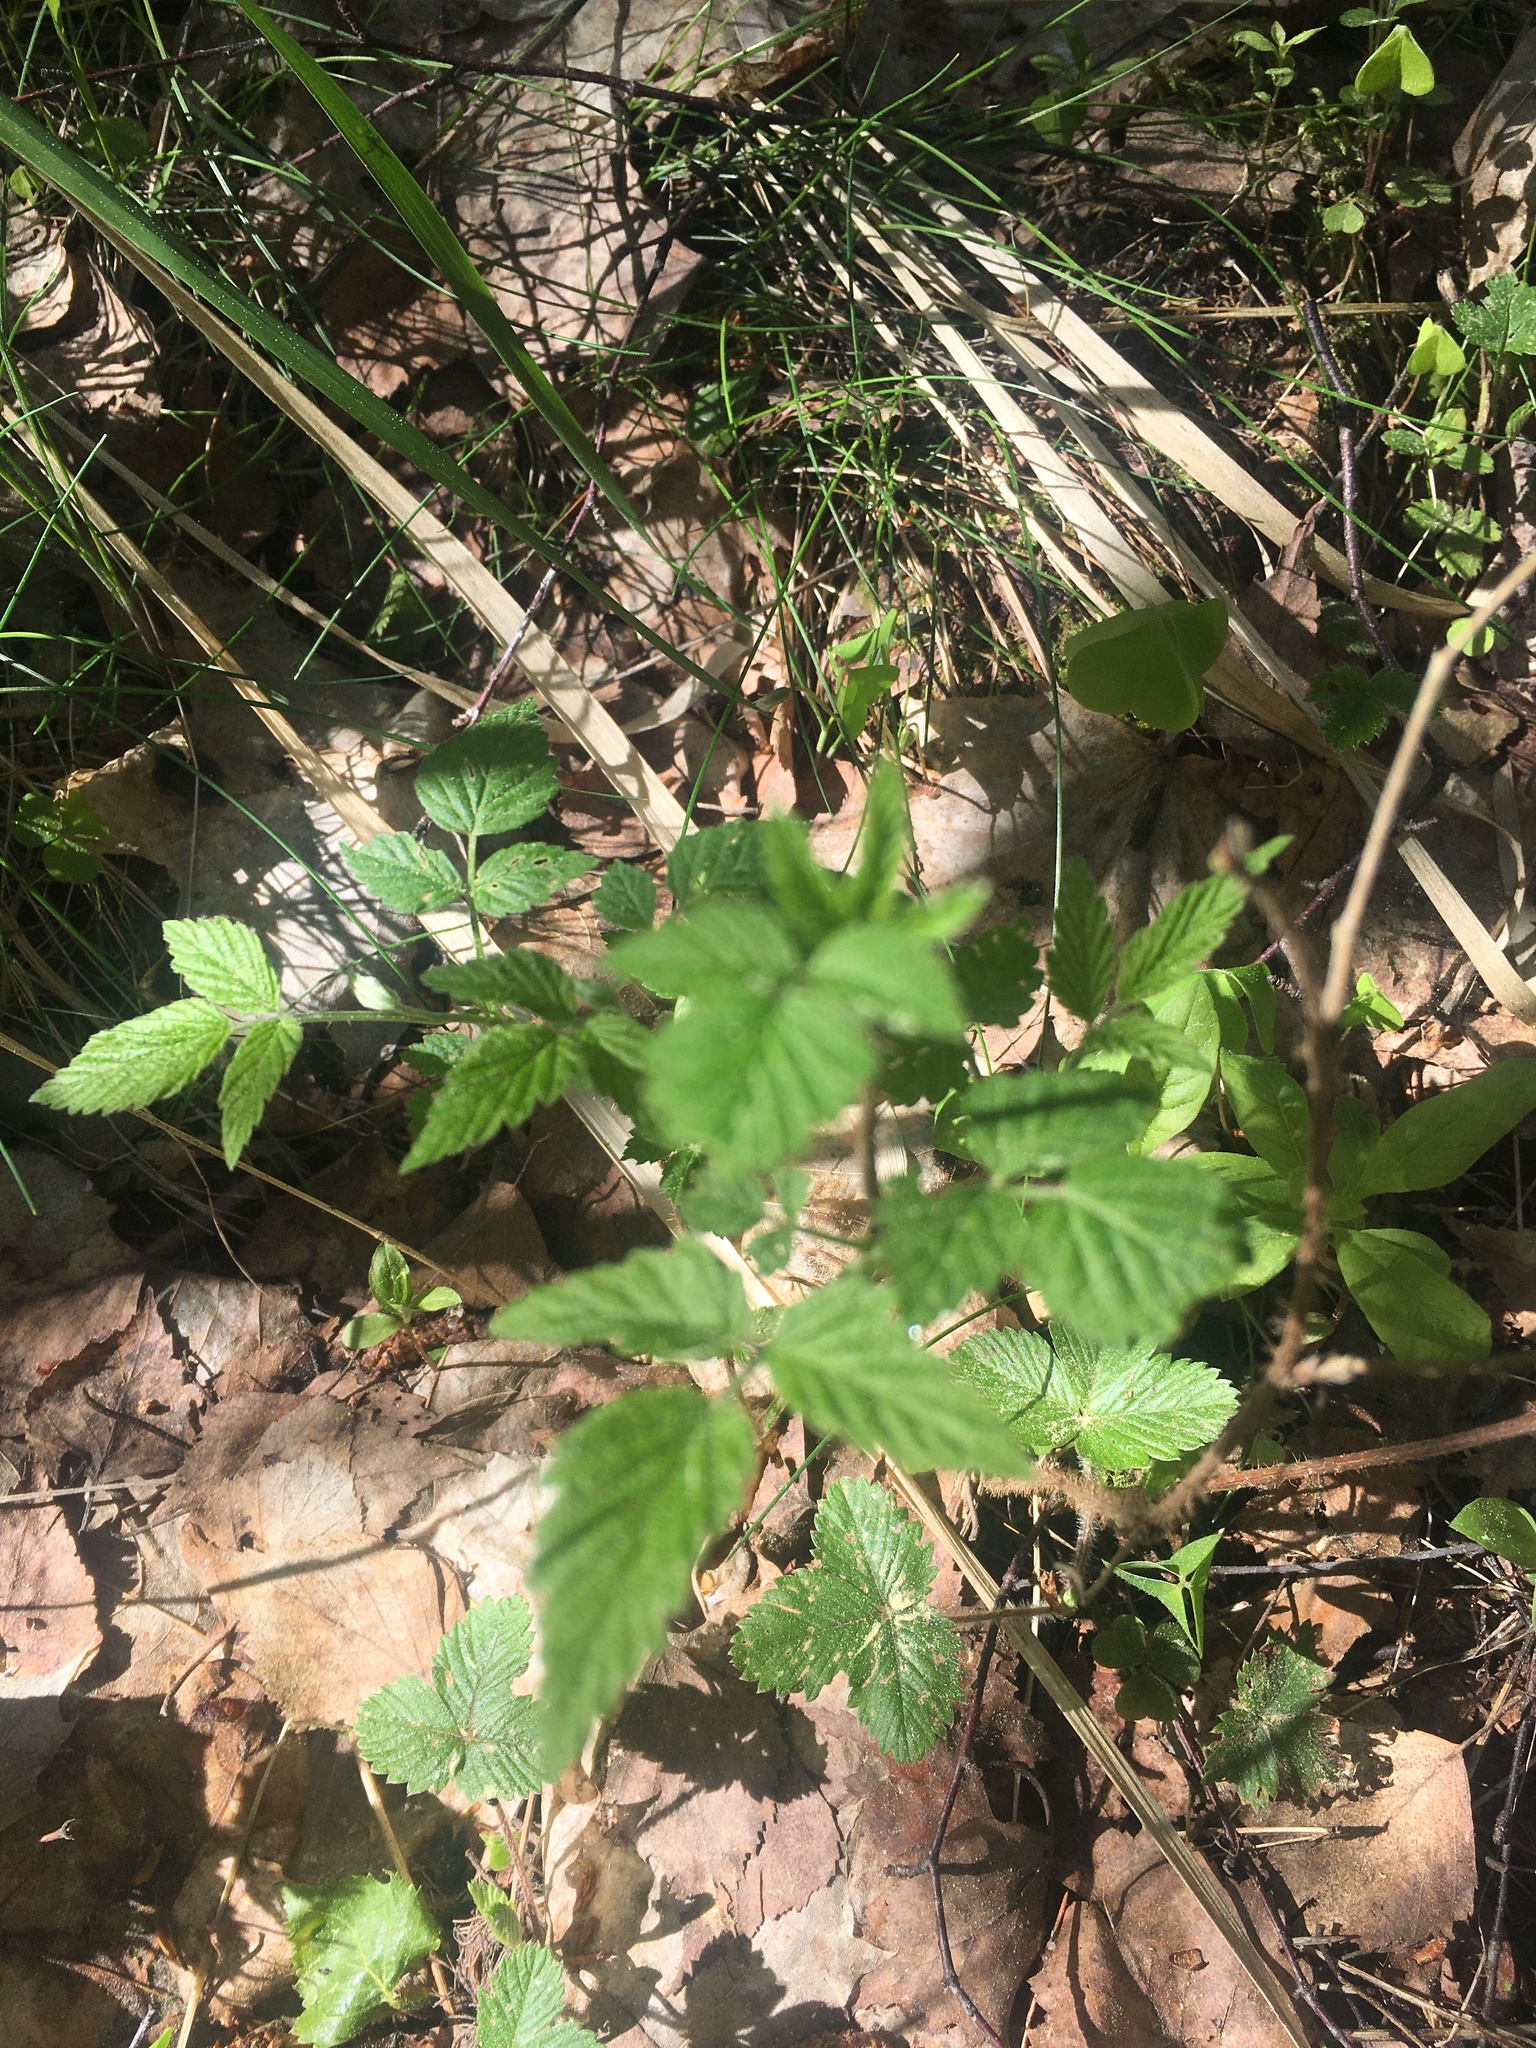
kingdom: Plantae
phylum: Tracheophyta
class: Magnoliopsida
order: Rosales
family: Rosaceae
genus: Rubus
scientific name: Rubus idaeus
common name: Raspberry
